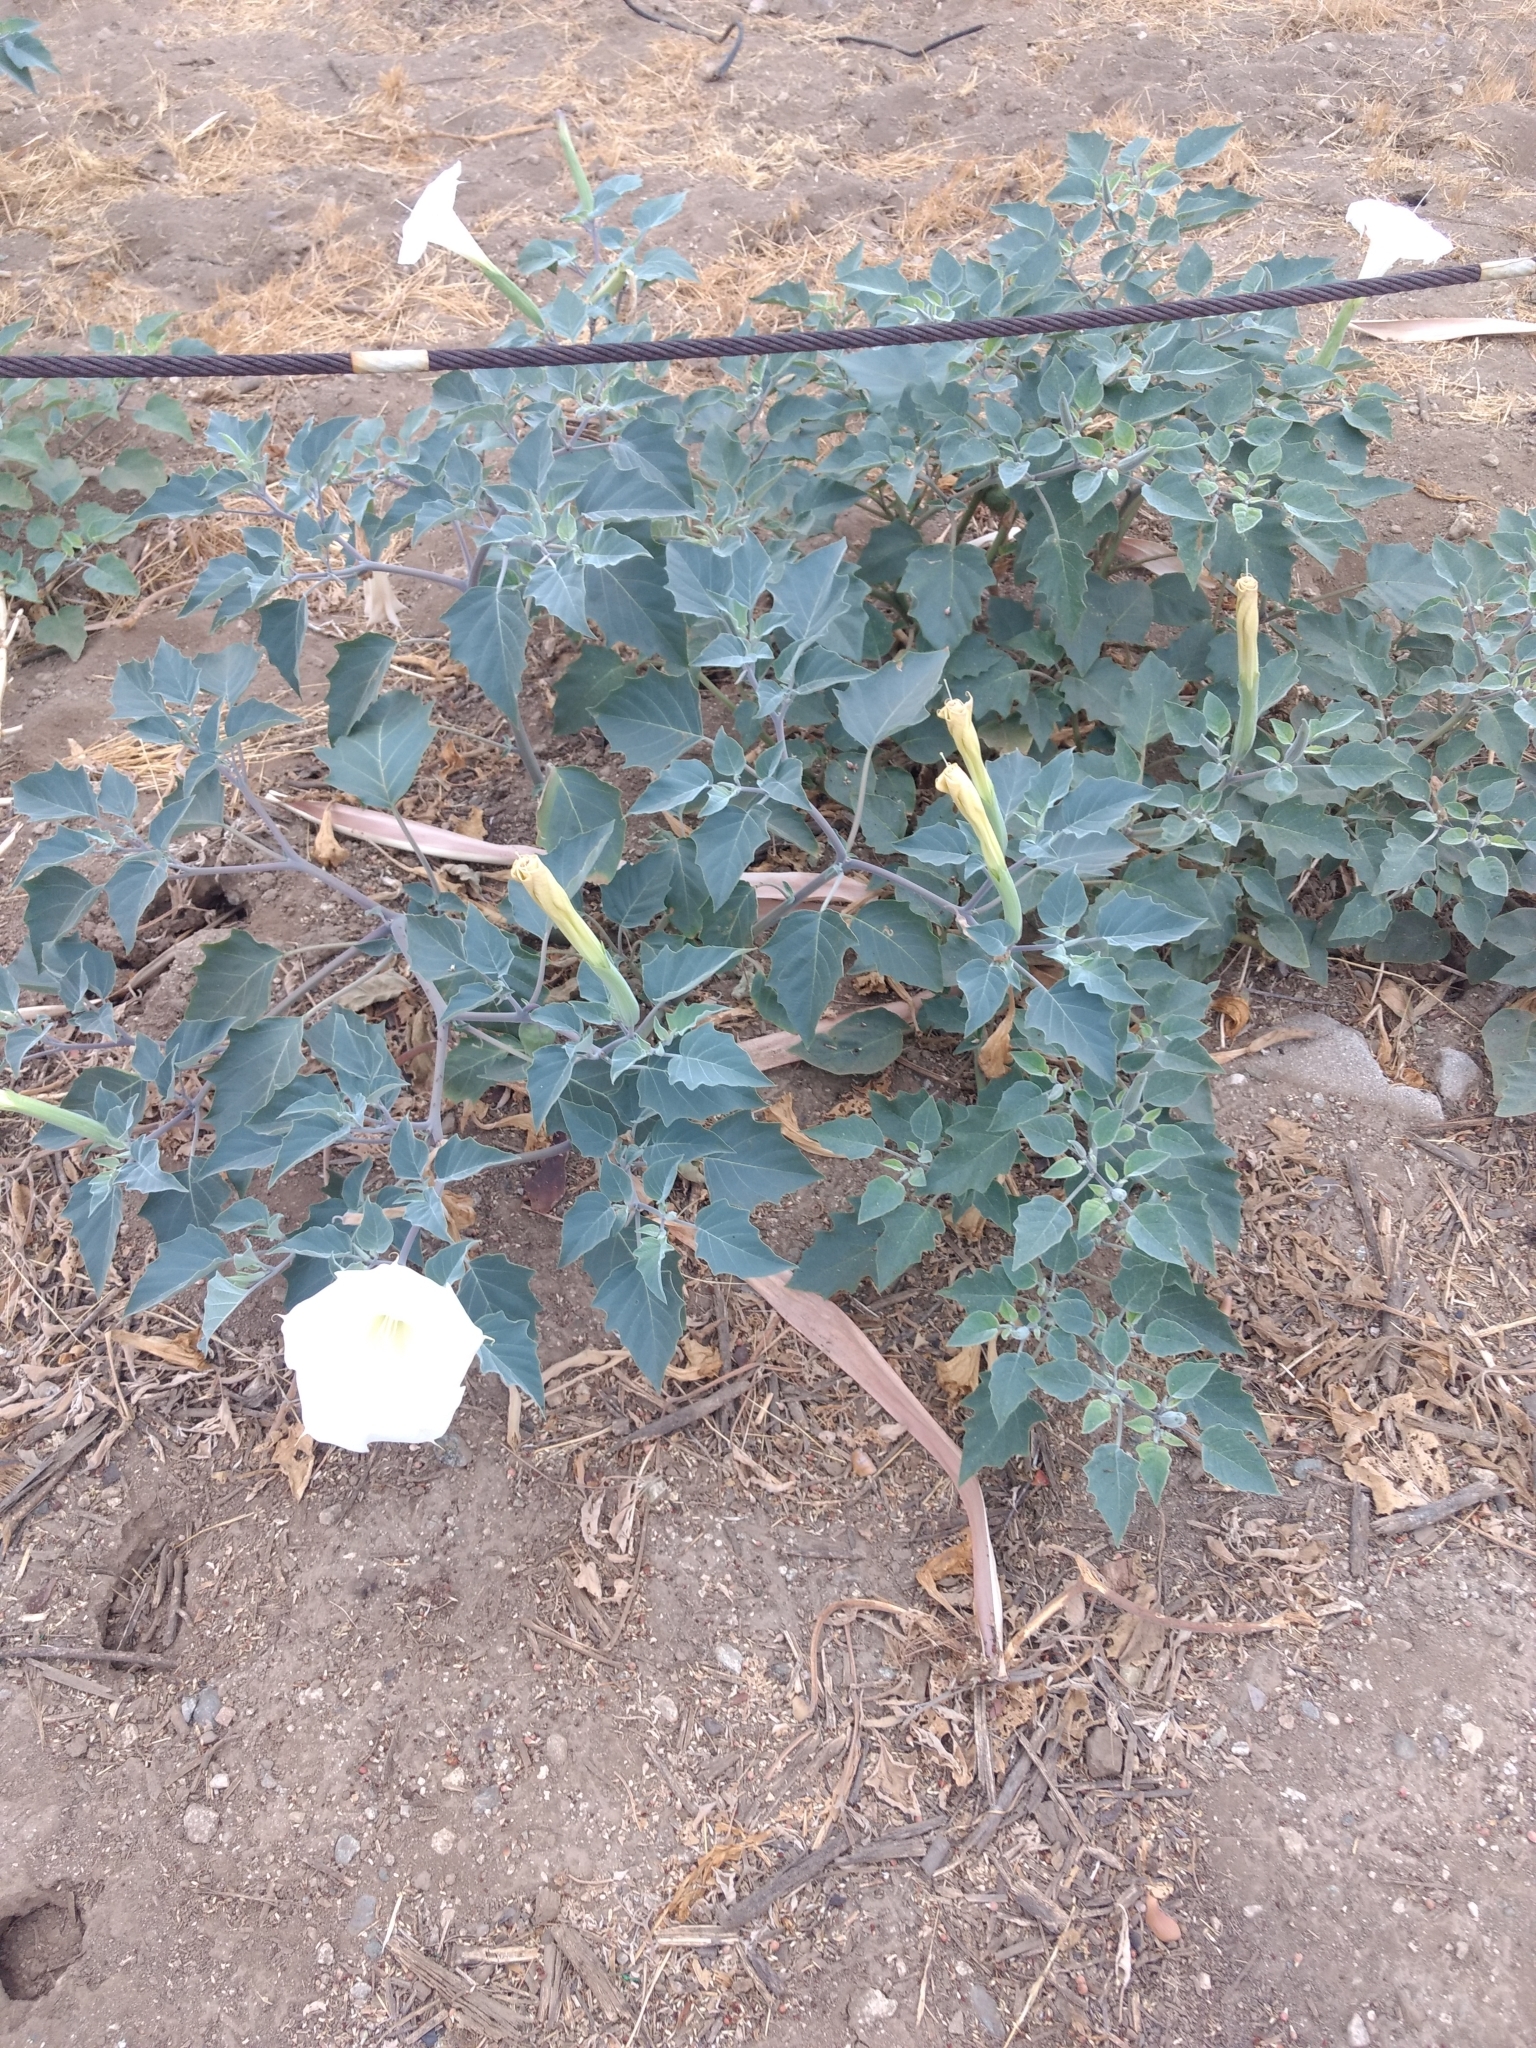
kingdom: Plantae
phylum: Tracheophyta
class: Magnoliopsida
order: Solanales
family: Solanaceae
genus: Datura
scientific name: Datura wrightii
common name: Sacred thorn-apple
